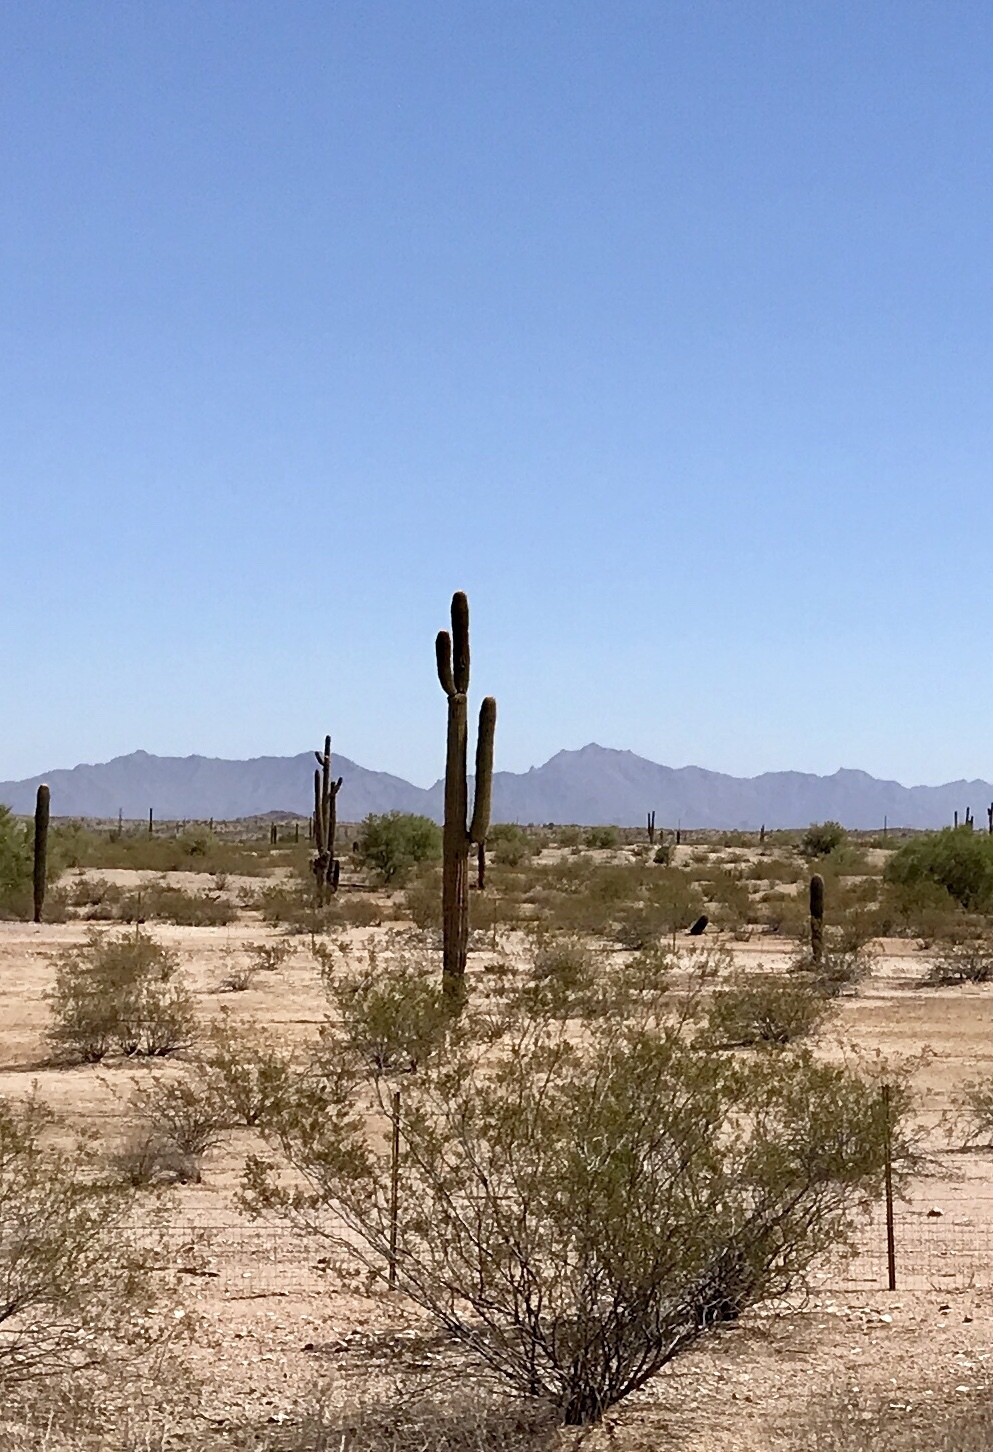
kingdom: Plantae
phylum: Tracheophyta
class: Magnoliopsida
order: Caryophyllales
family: Cactaceae
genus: Carnegiea
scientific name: Carnegiea gigantea
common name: Saguaro
